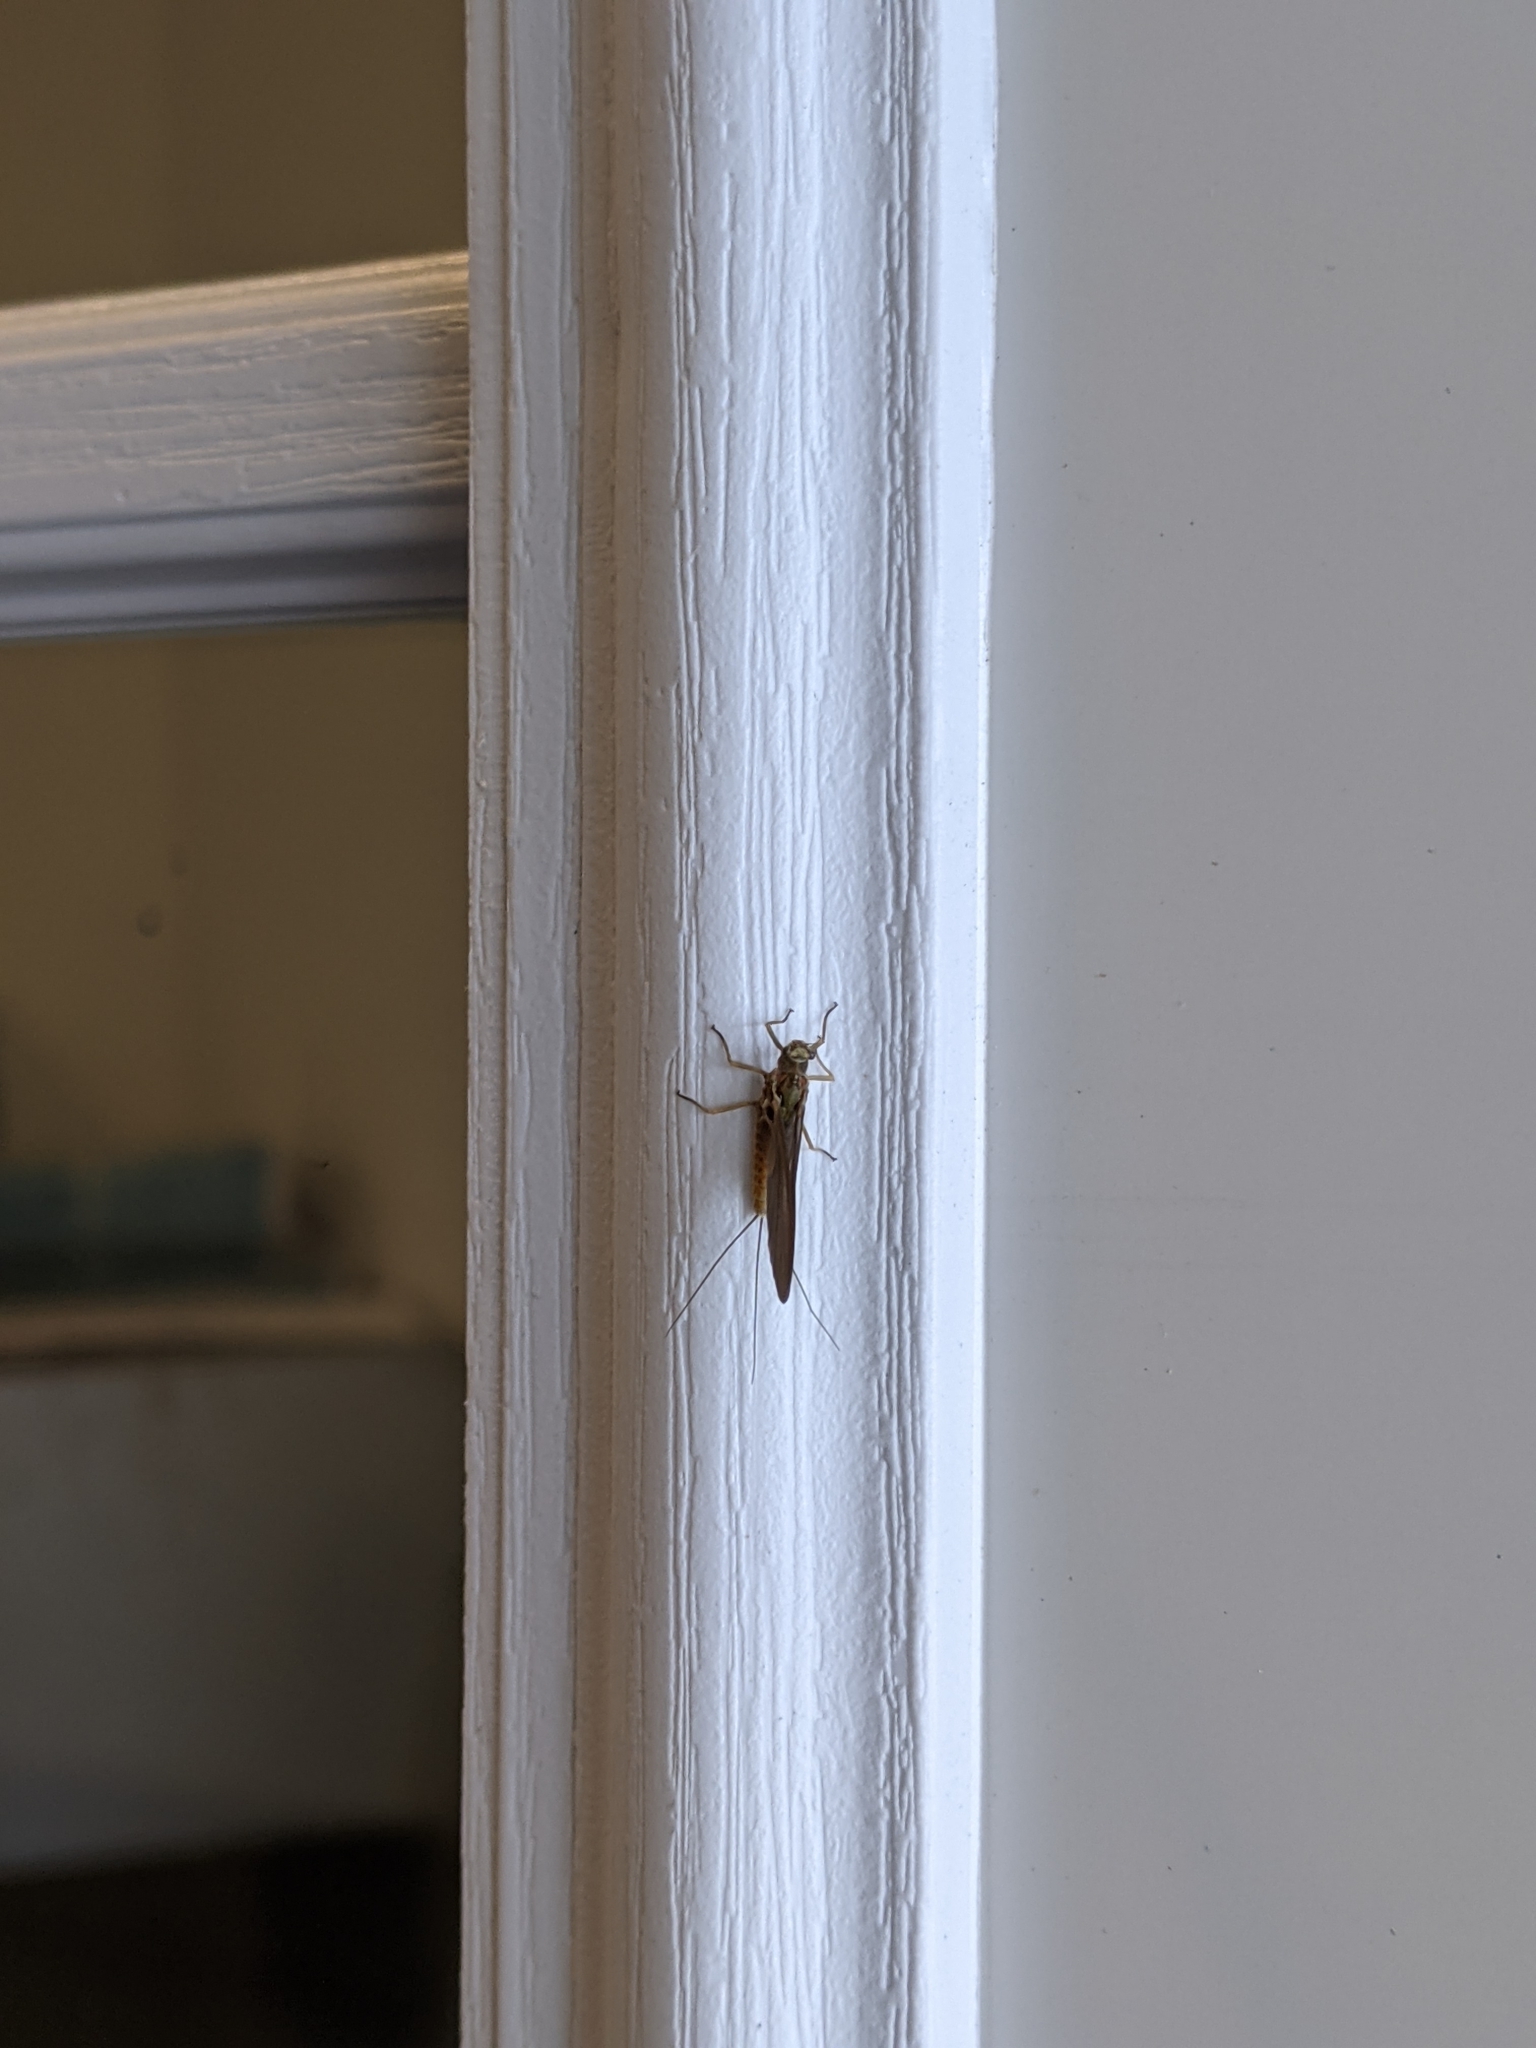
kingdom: Animalia
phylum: Arthropoda
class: Insecta
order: Ephemeroptera
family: Ephemerellidae
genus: Ephemerella
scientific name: Ephemerella subvaria
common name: Dark hendrickson
